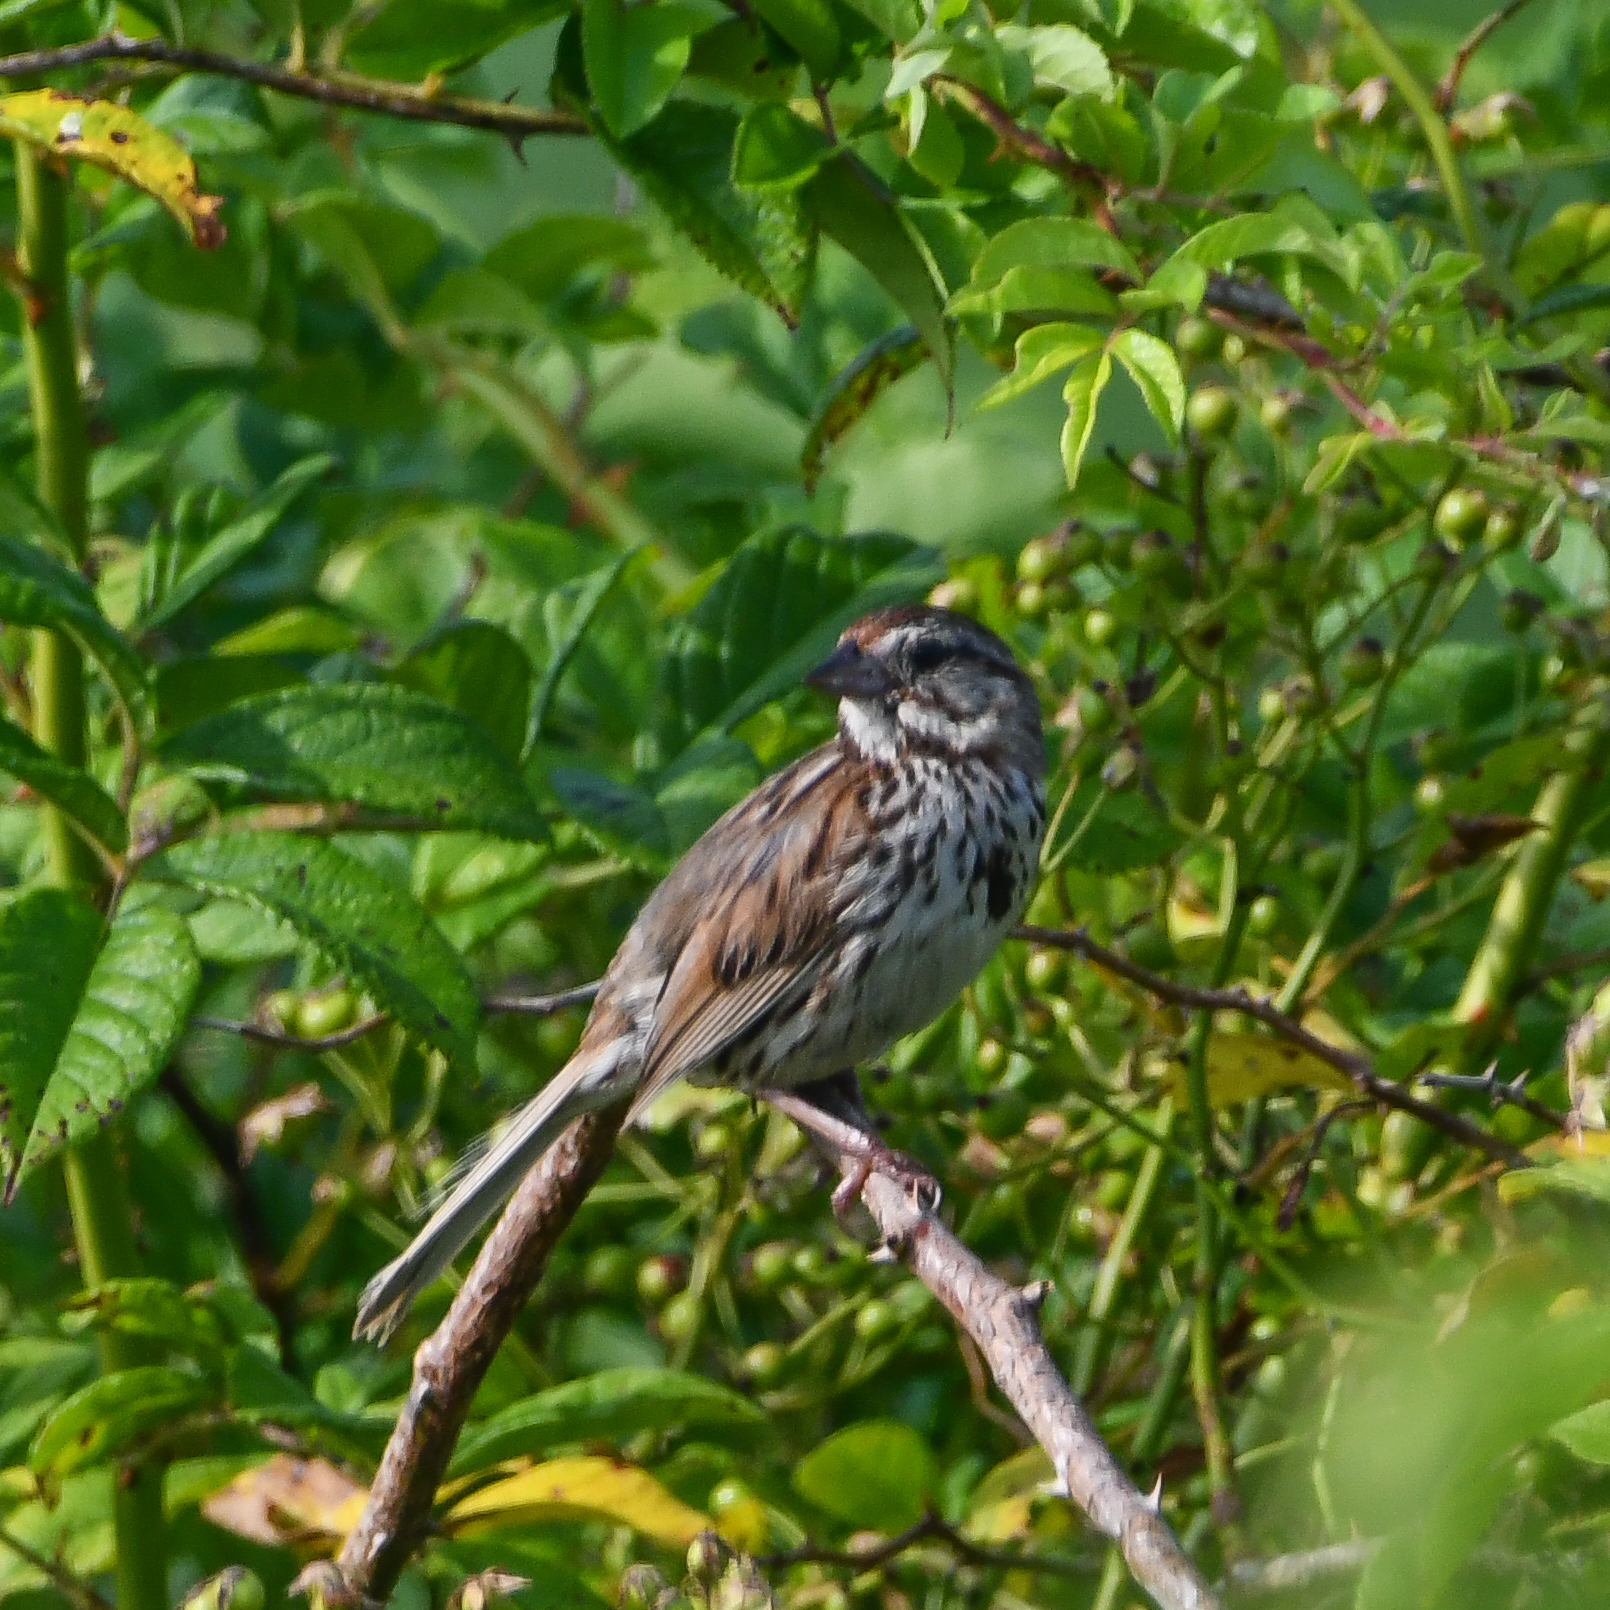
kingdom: Animalia
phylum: Chordata
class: Aves
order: Passeriformes
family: Passerellidae
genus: Melospiza
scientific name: Melospiza melodia
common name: Song sparrow
